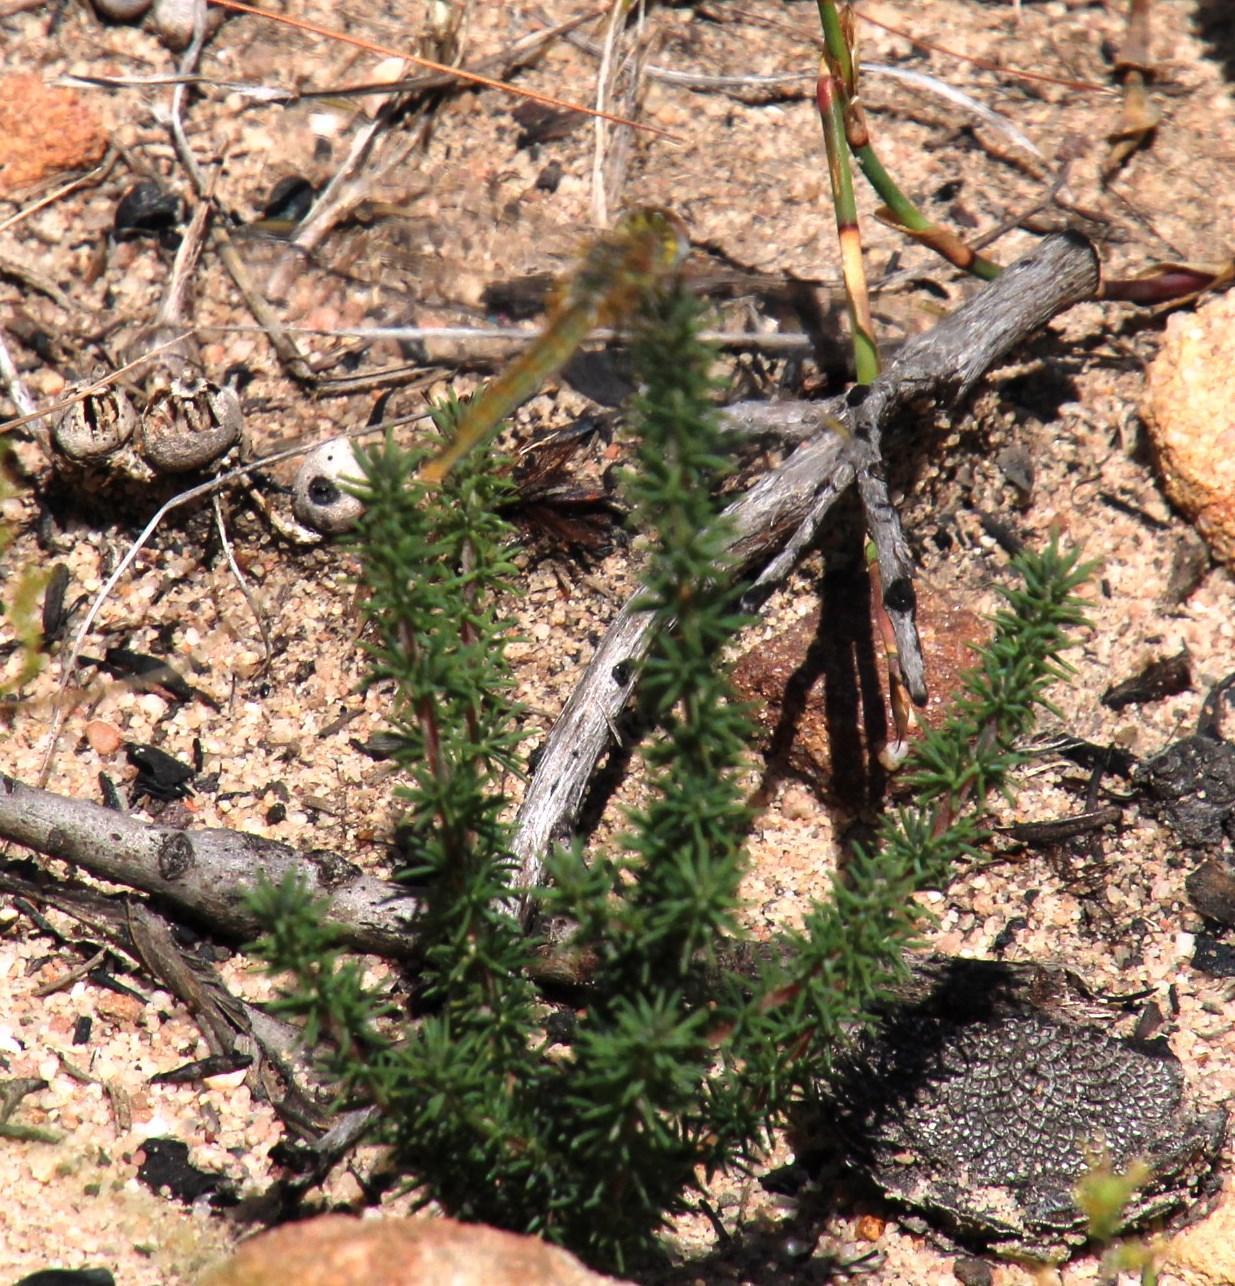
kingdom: Plantae
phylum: Tracheophyta
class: Magnoliopsida
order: Fabales
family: Fabaceae
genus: Indigofera
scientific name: Indigofera pilgeriana
